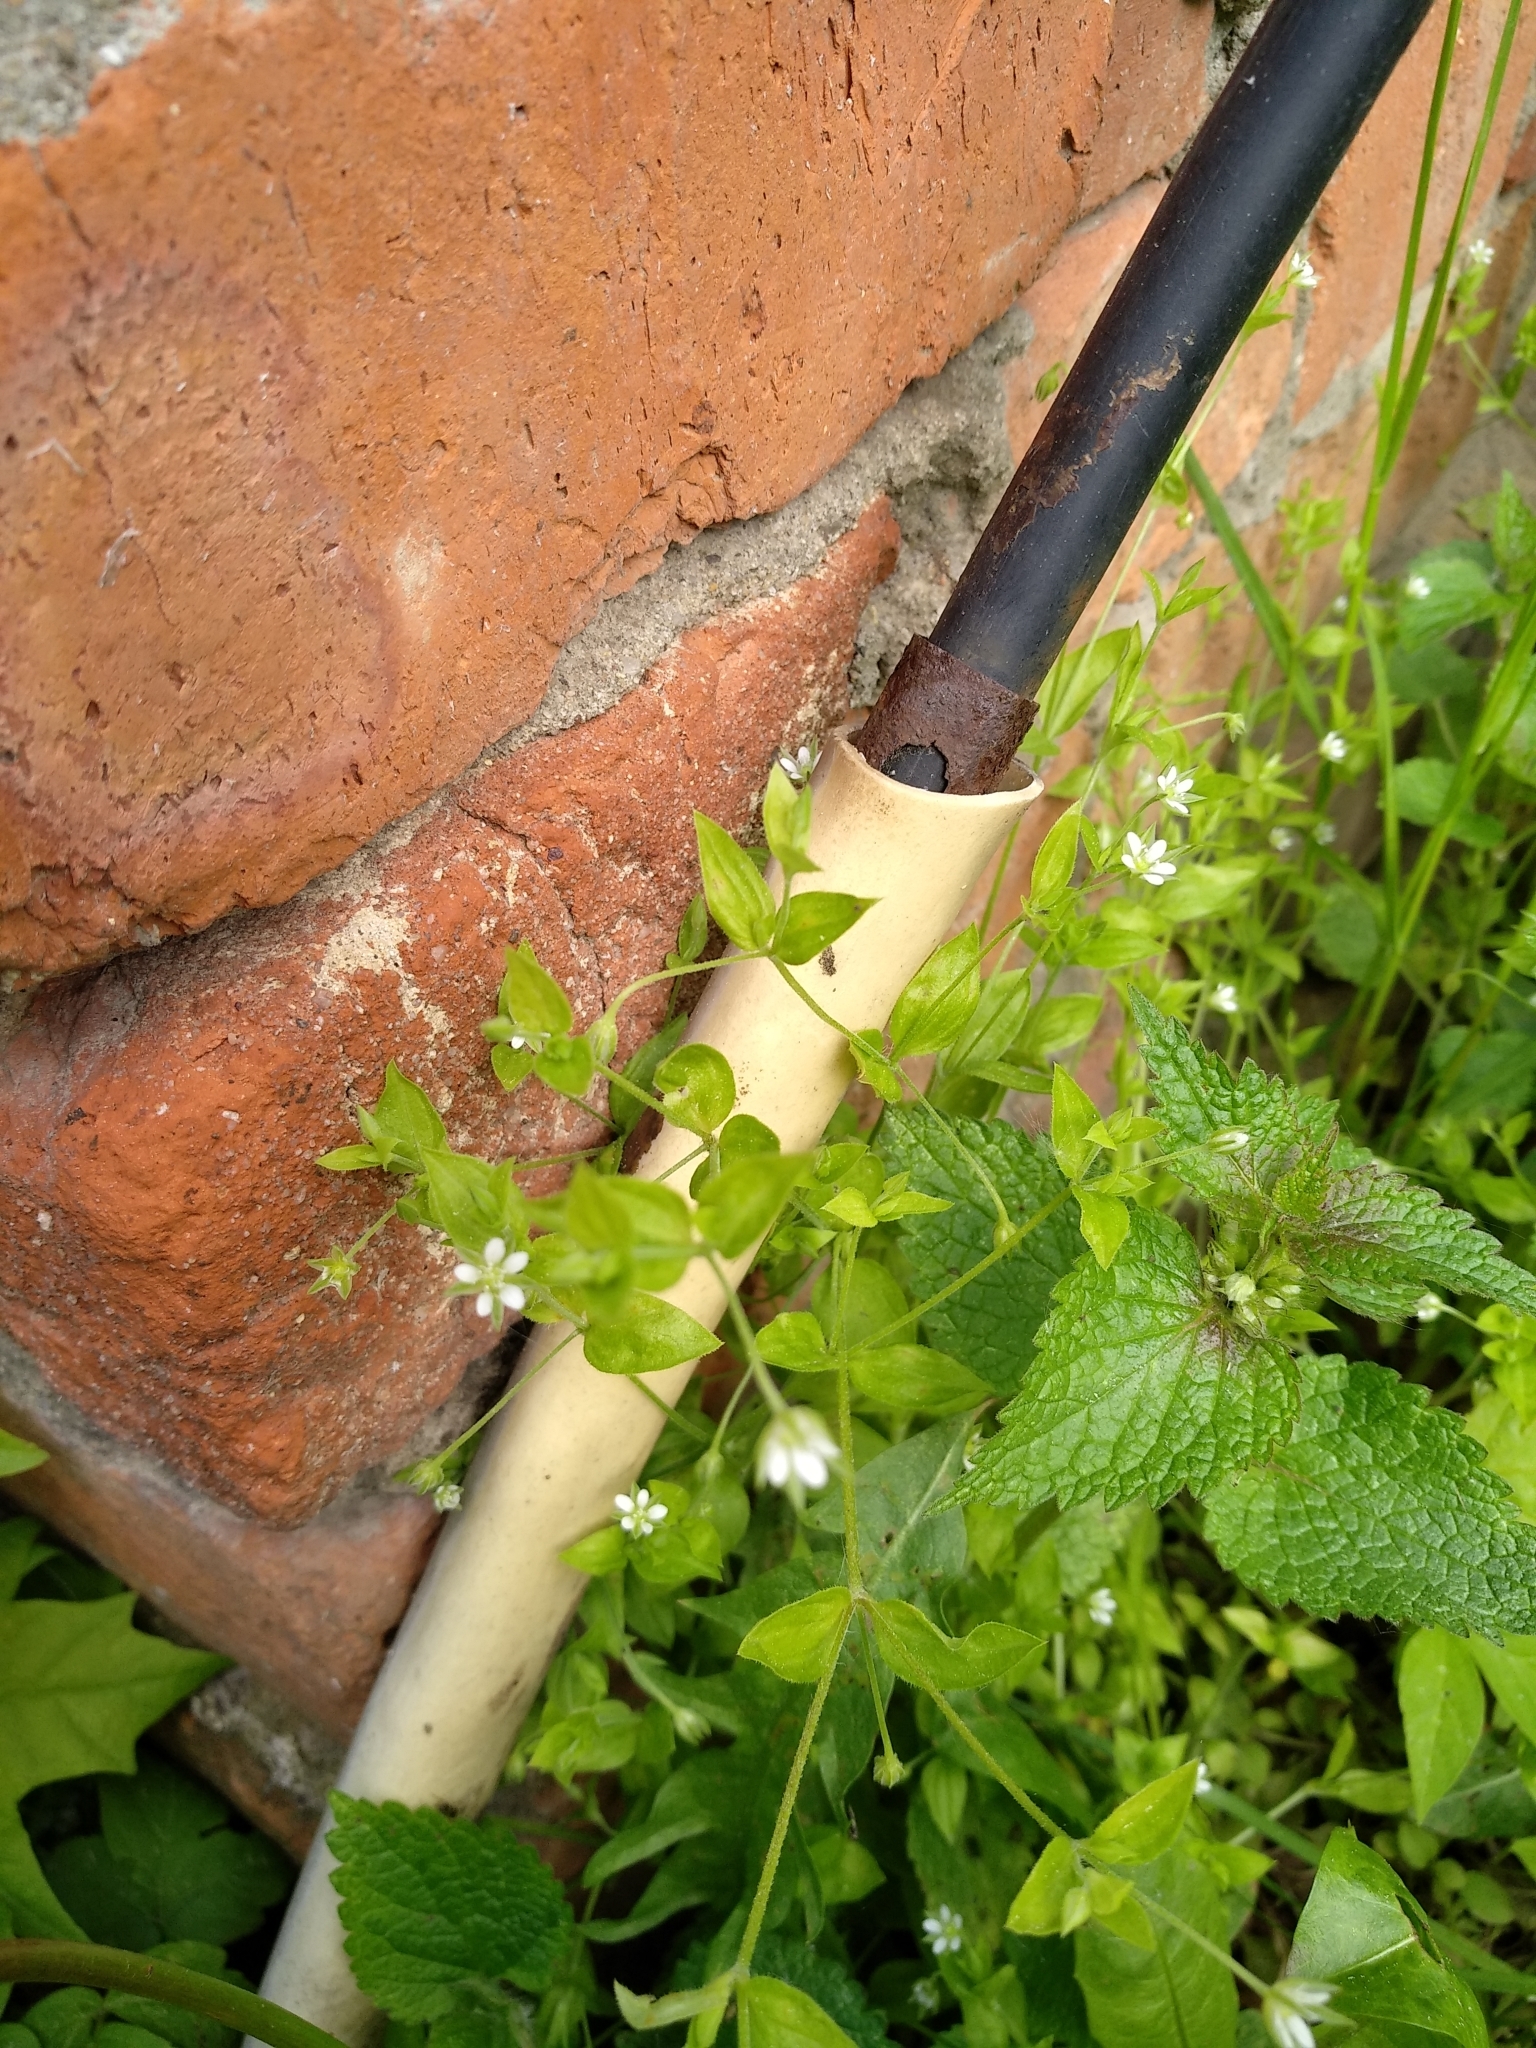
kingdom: Plantae
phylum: Tracheophyta
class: Magnoliopsida
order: Caryophyllales
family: Caryophyllaceae
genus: Moehringia
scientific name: Moehringia trinervia
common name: Three-nerved sandwort
